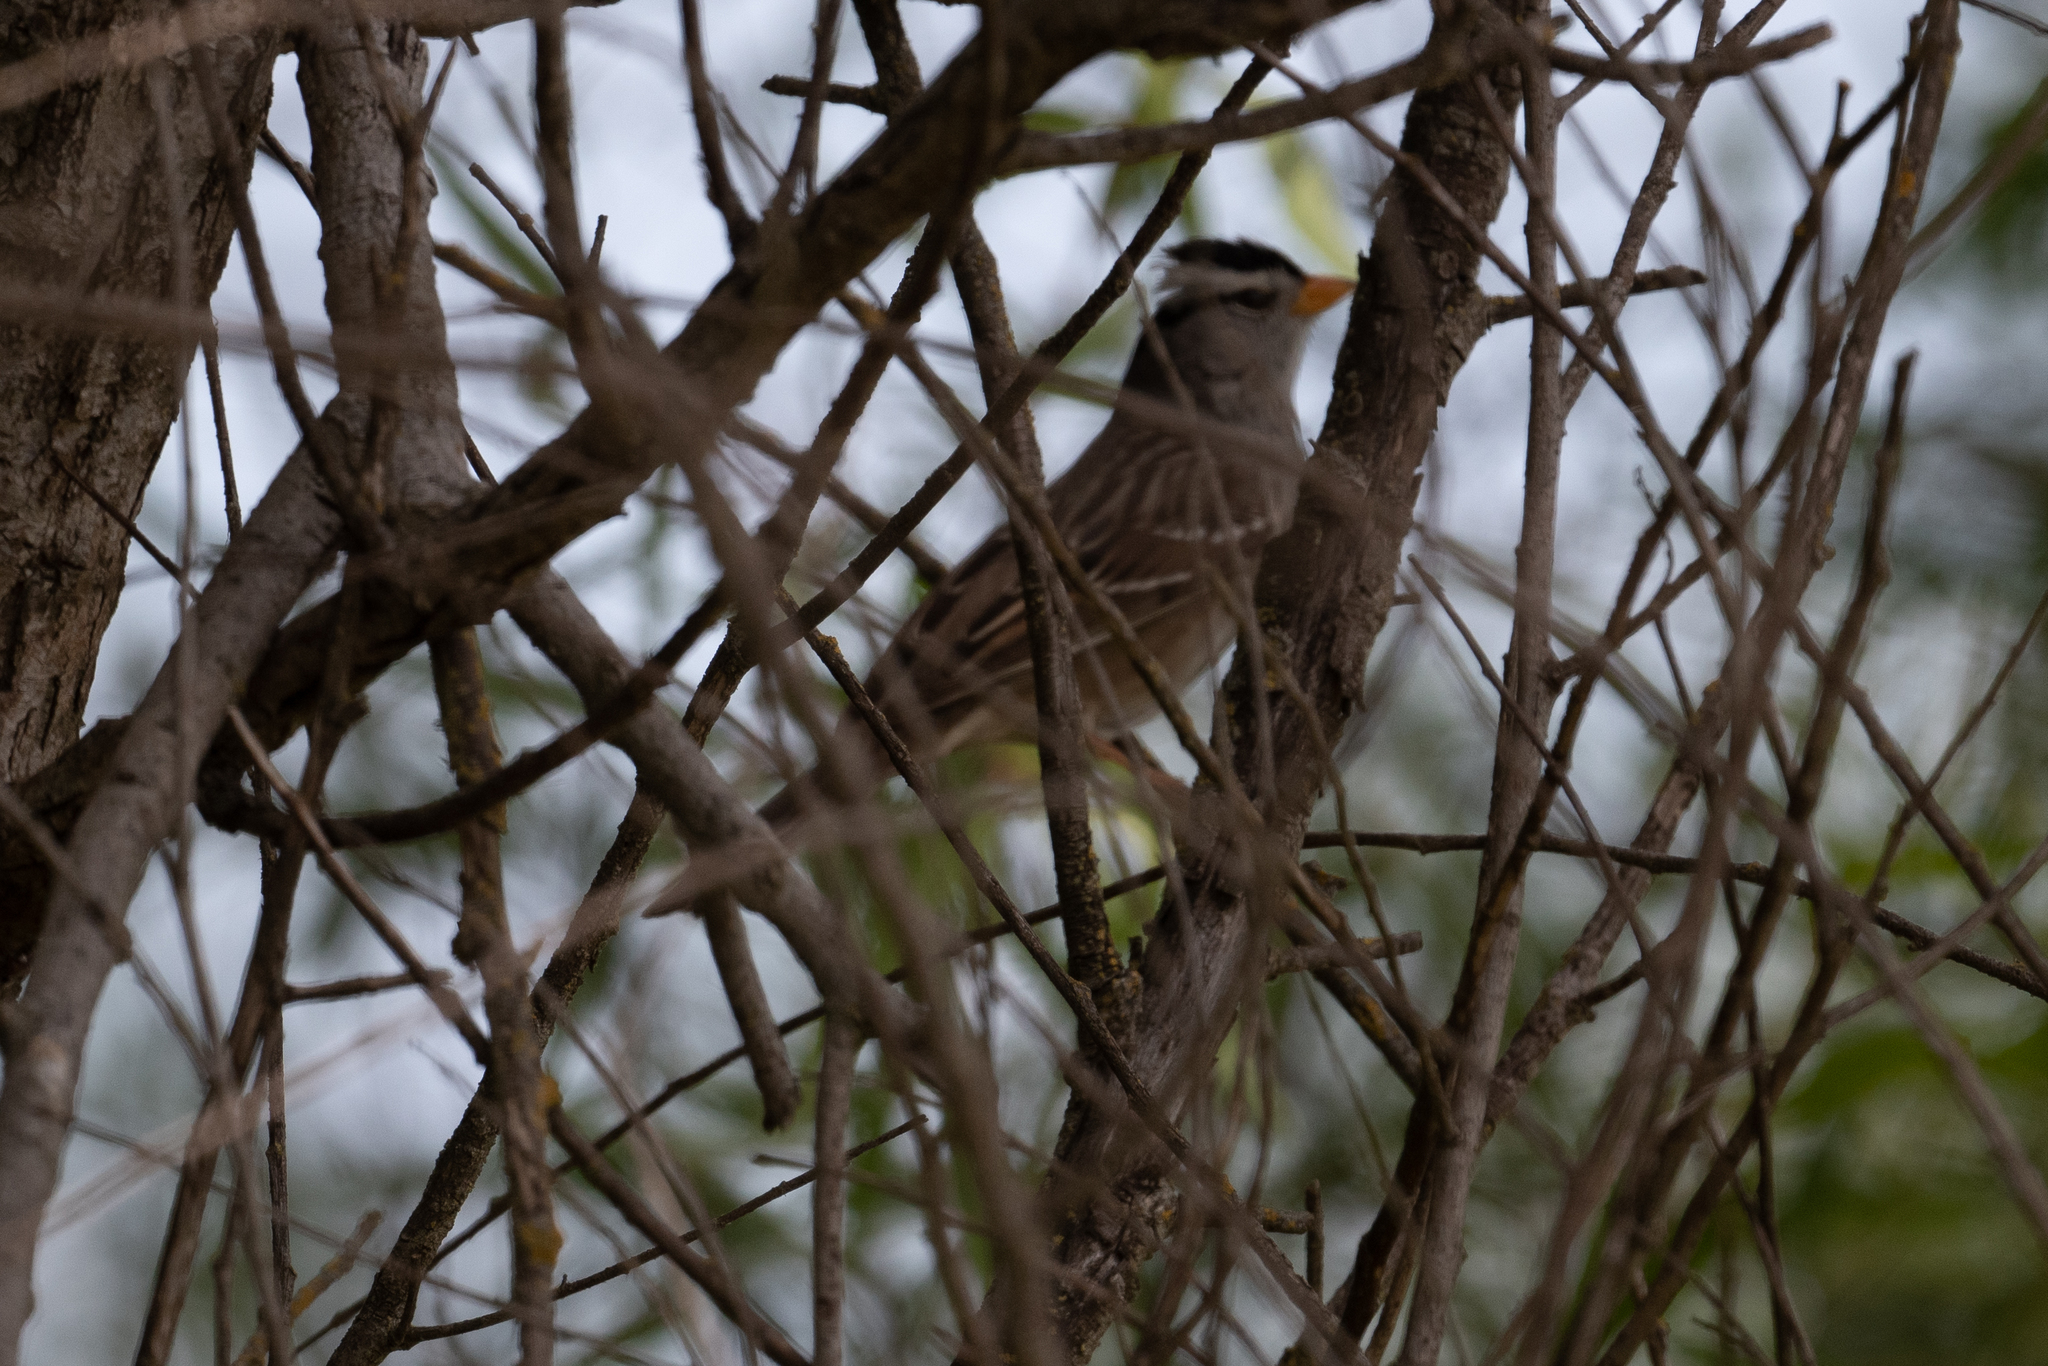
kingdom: Animalia
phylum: Chordata
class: Aves
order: Passeriformes
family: Passerellidae
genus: Zonotrichia
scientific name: Zonotrichia leucophrys
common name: White-crowned sparrow
